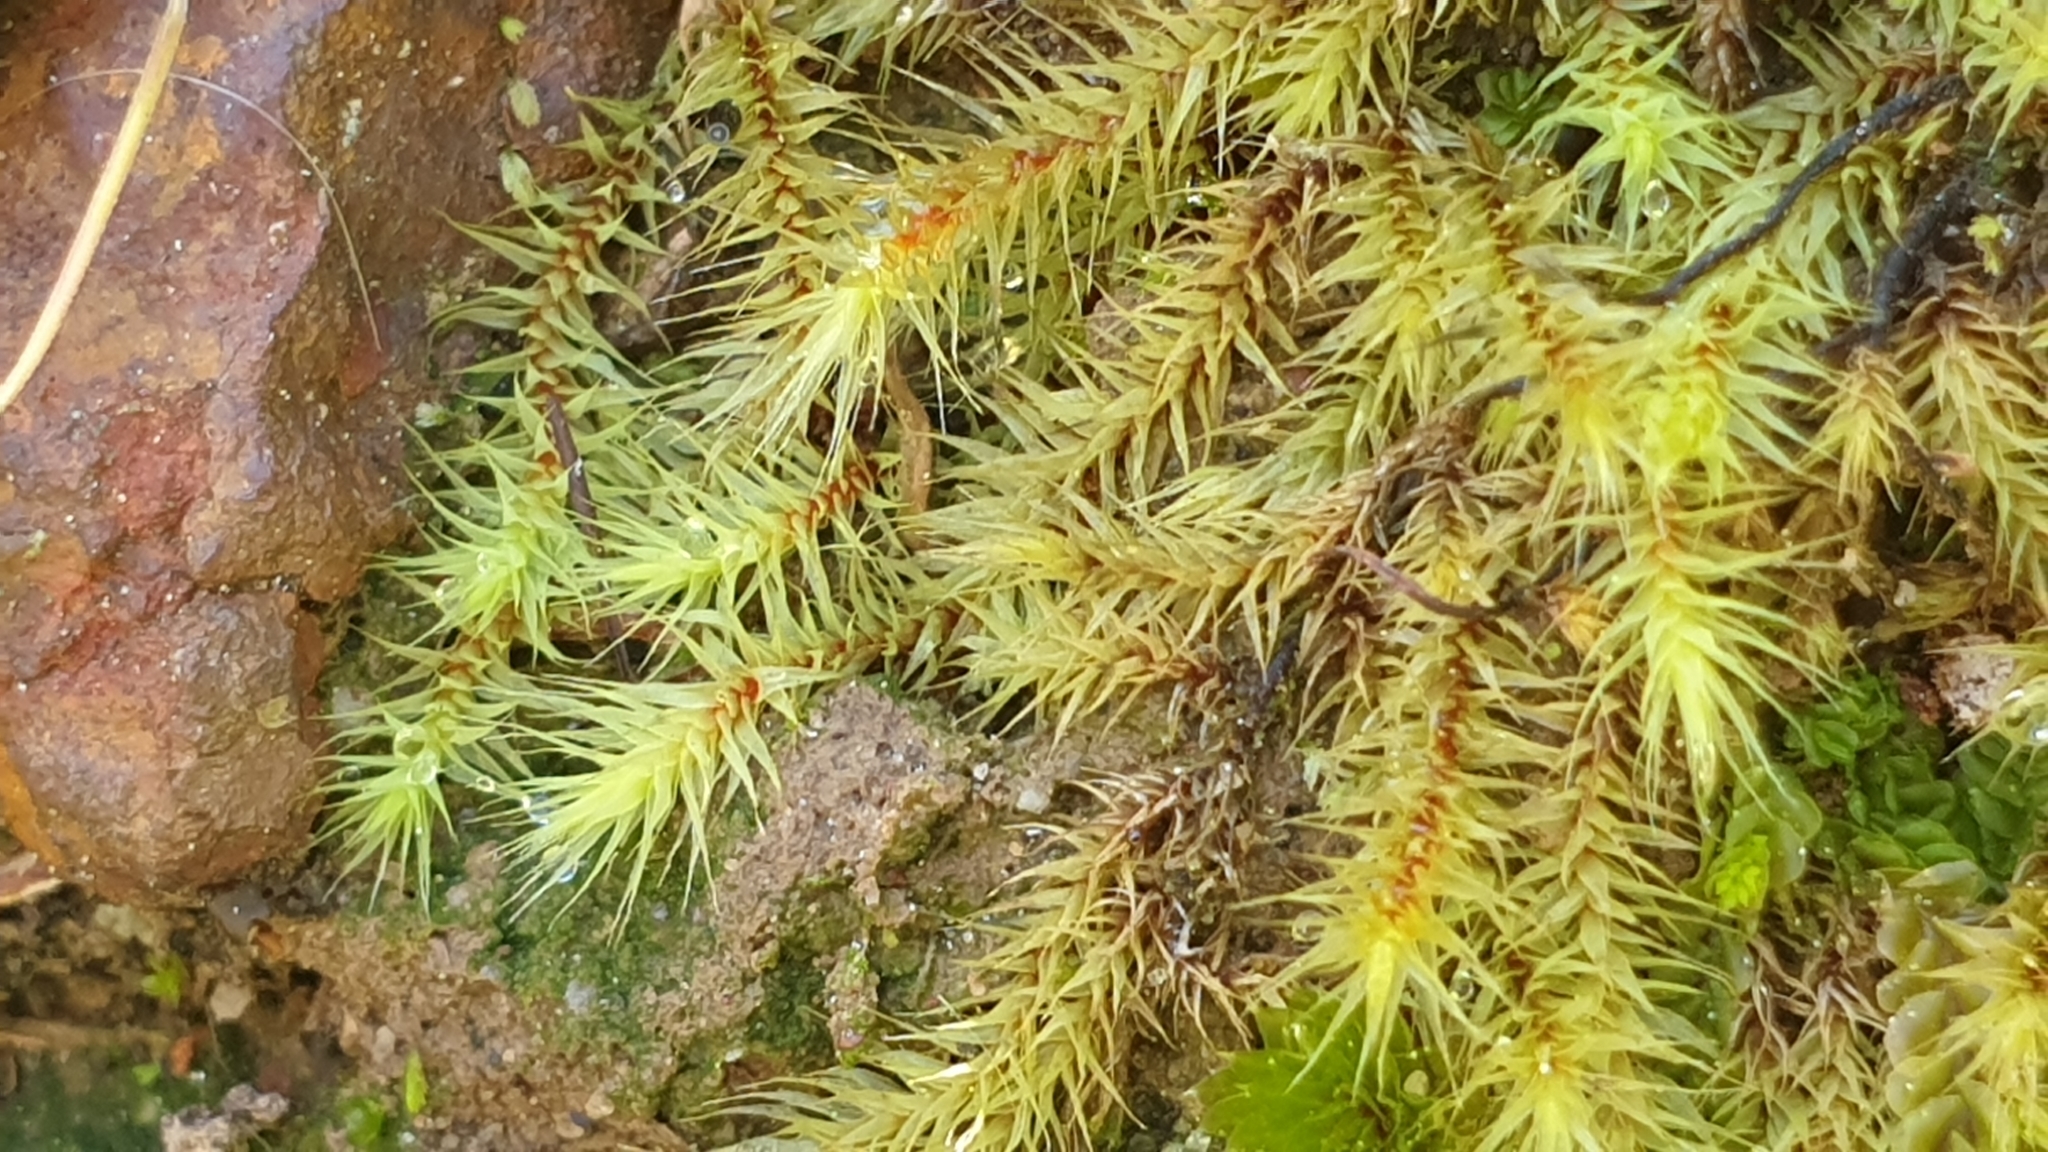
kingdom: Plantae
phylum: Bryophyta
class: Bryopsida
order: Bartramiales
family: Bartramiaceae
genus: Breutelia
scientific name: Breutelia affinis
